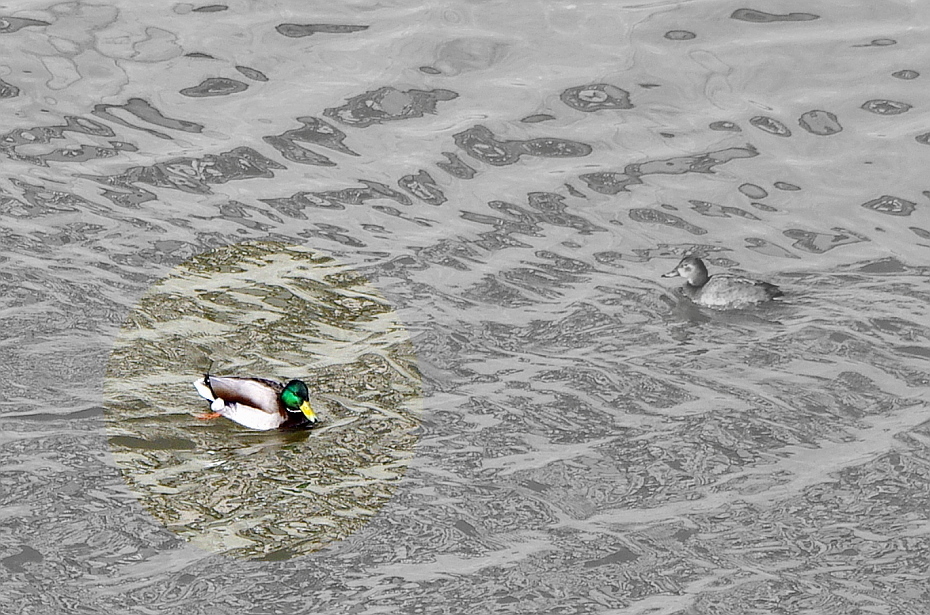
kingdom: Animalia
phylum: Chordata
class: Aves
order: Anseriformes
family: Anatidae
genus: Anas
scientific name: Anas platyrhynchos
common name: Mallard
